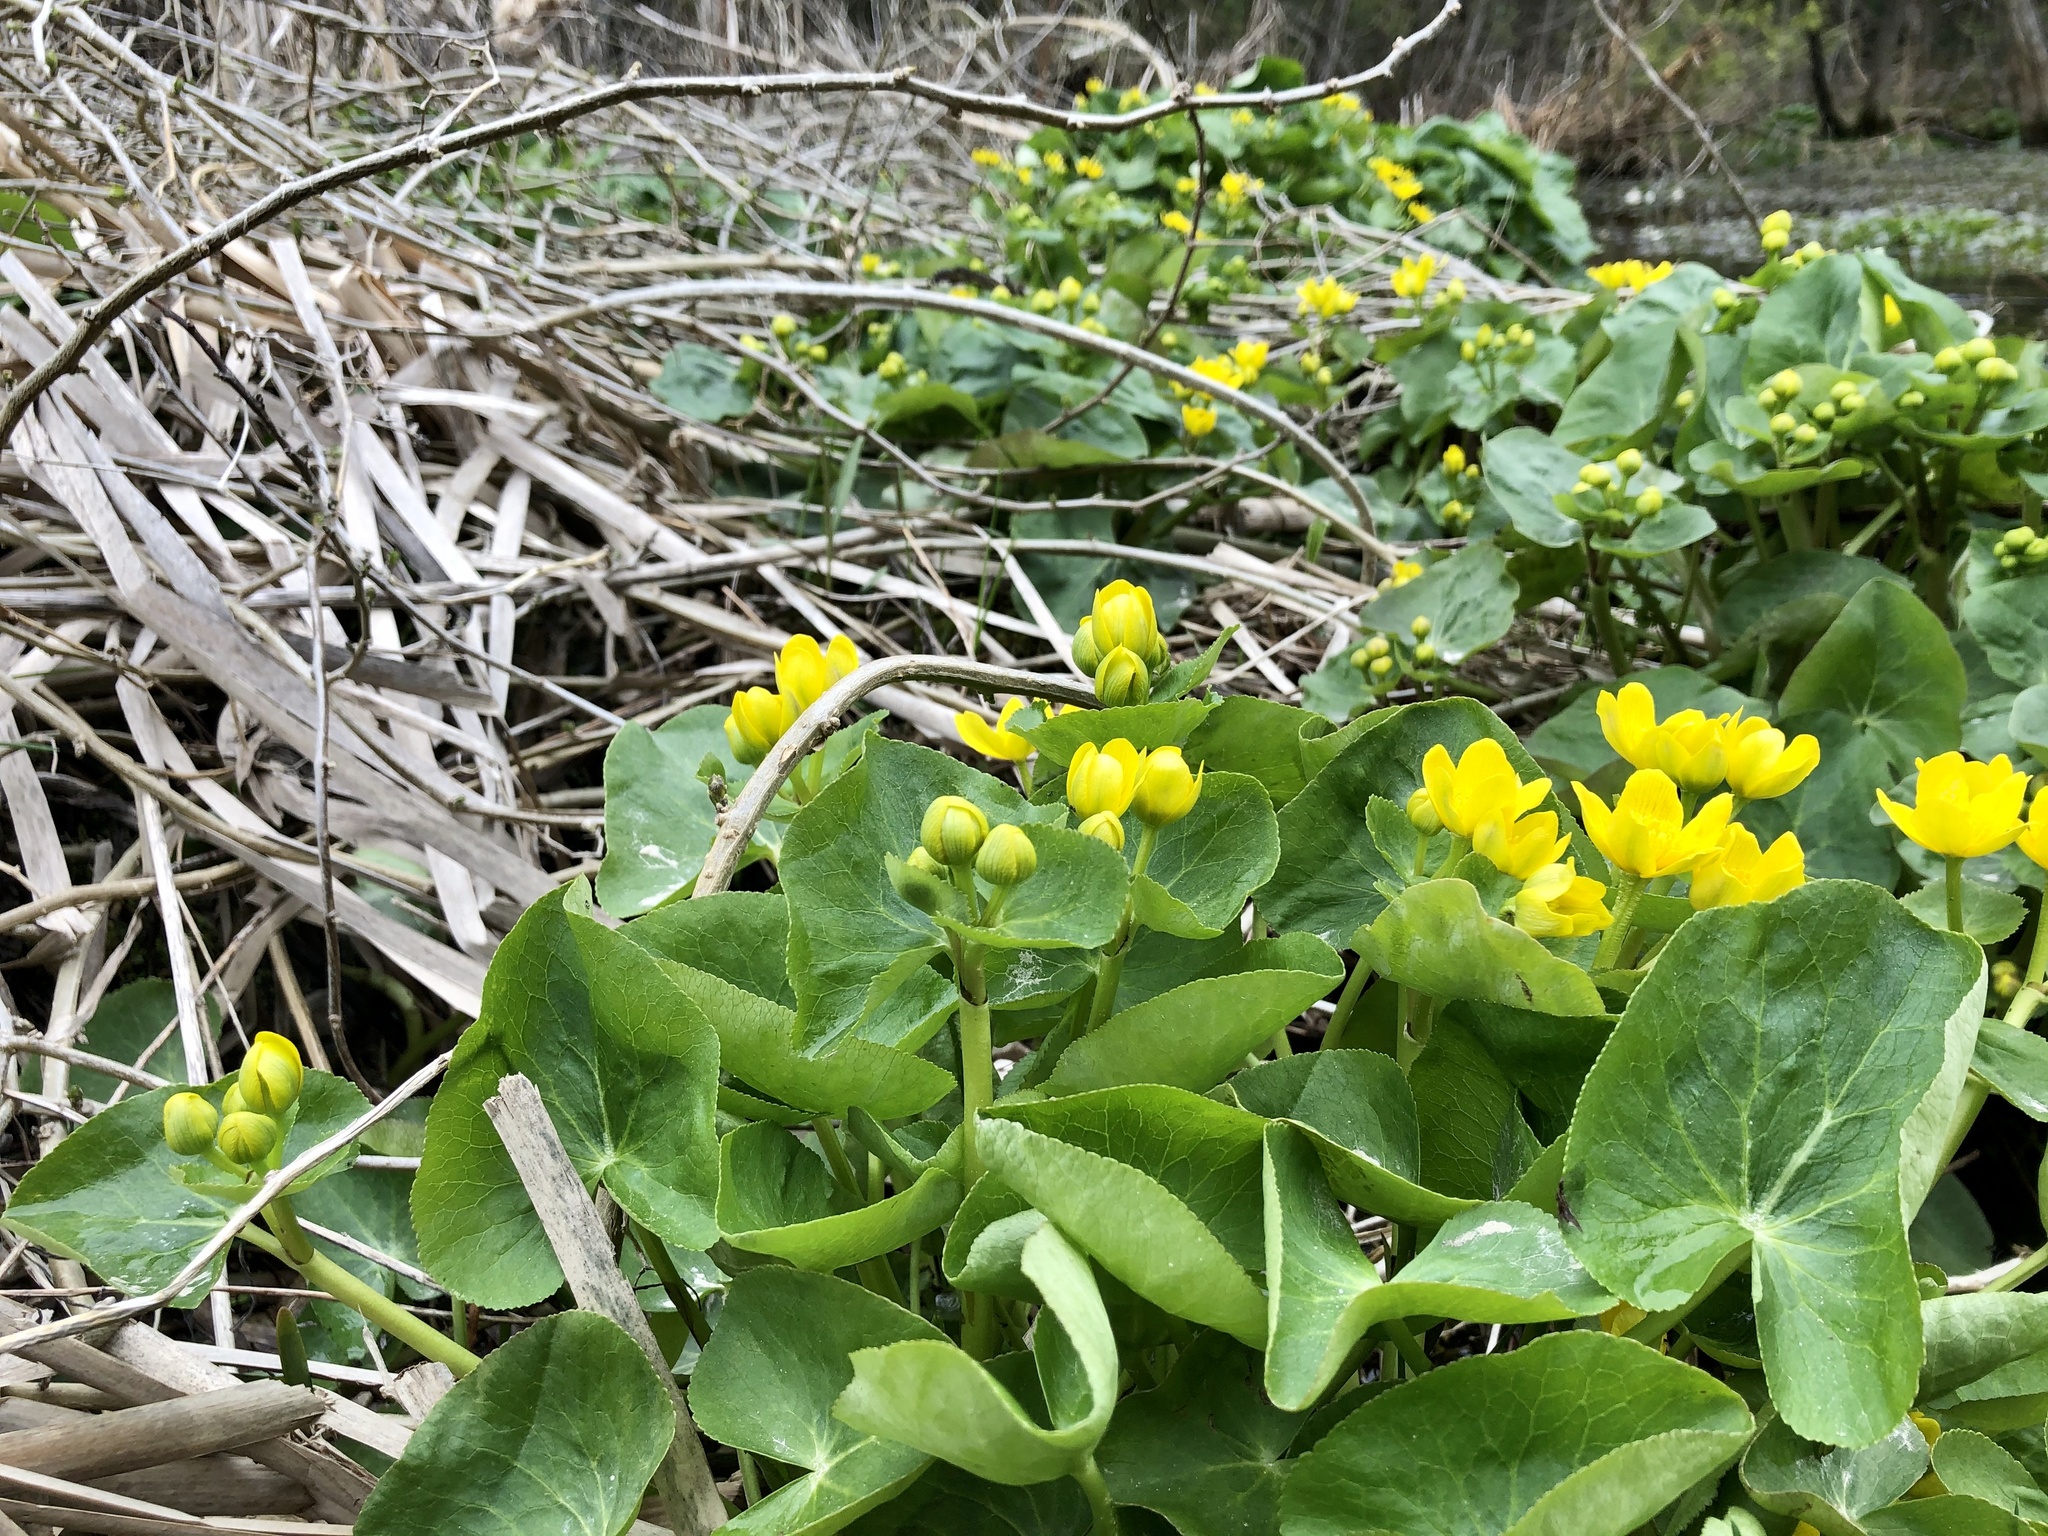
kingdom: Plantae
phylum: Tracheophyta
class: Magnoliopsida
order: Ranunculales
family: Ranunculaceae
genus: Caltha
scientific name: Caltha palustris
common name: Marsh marigold
